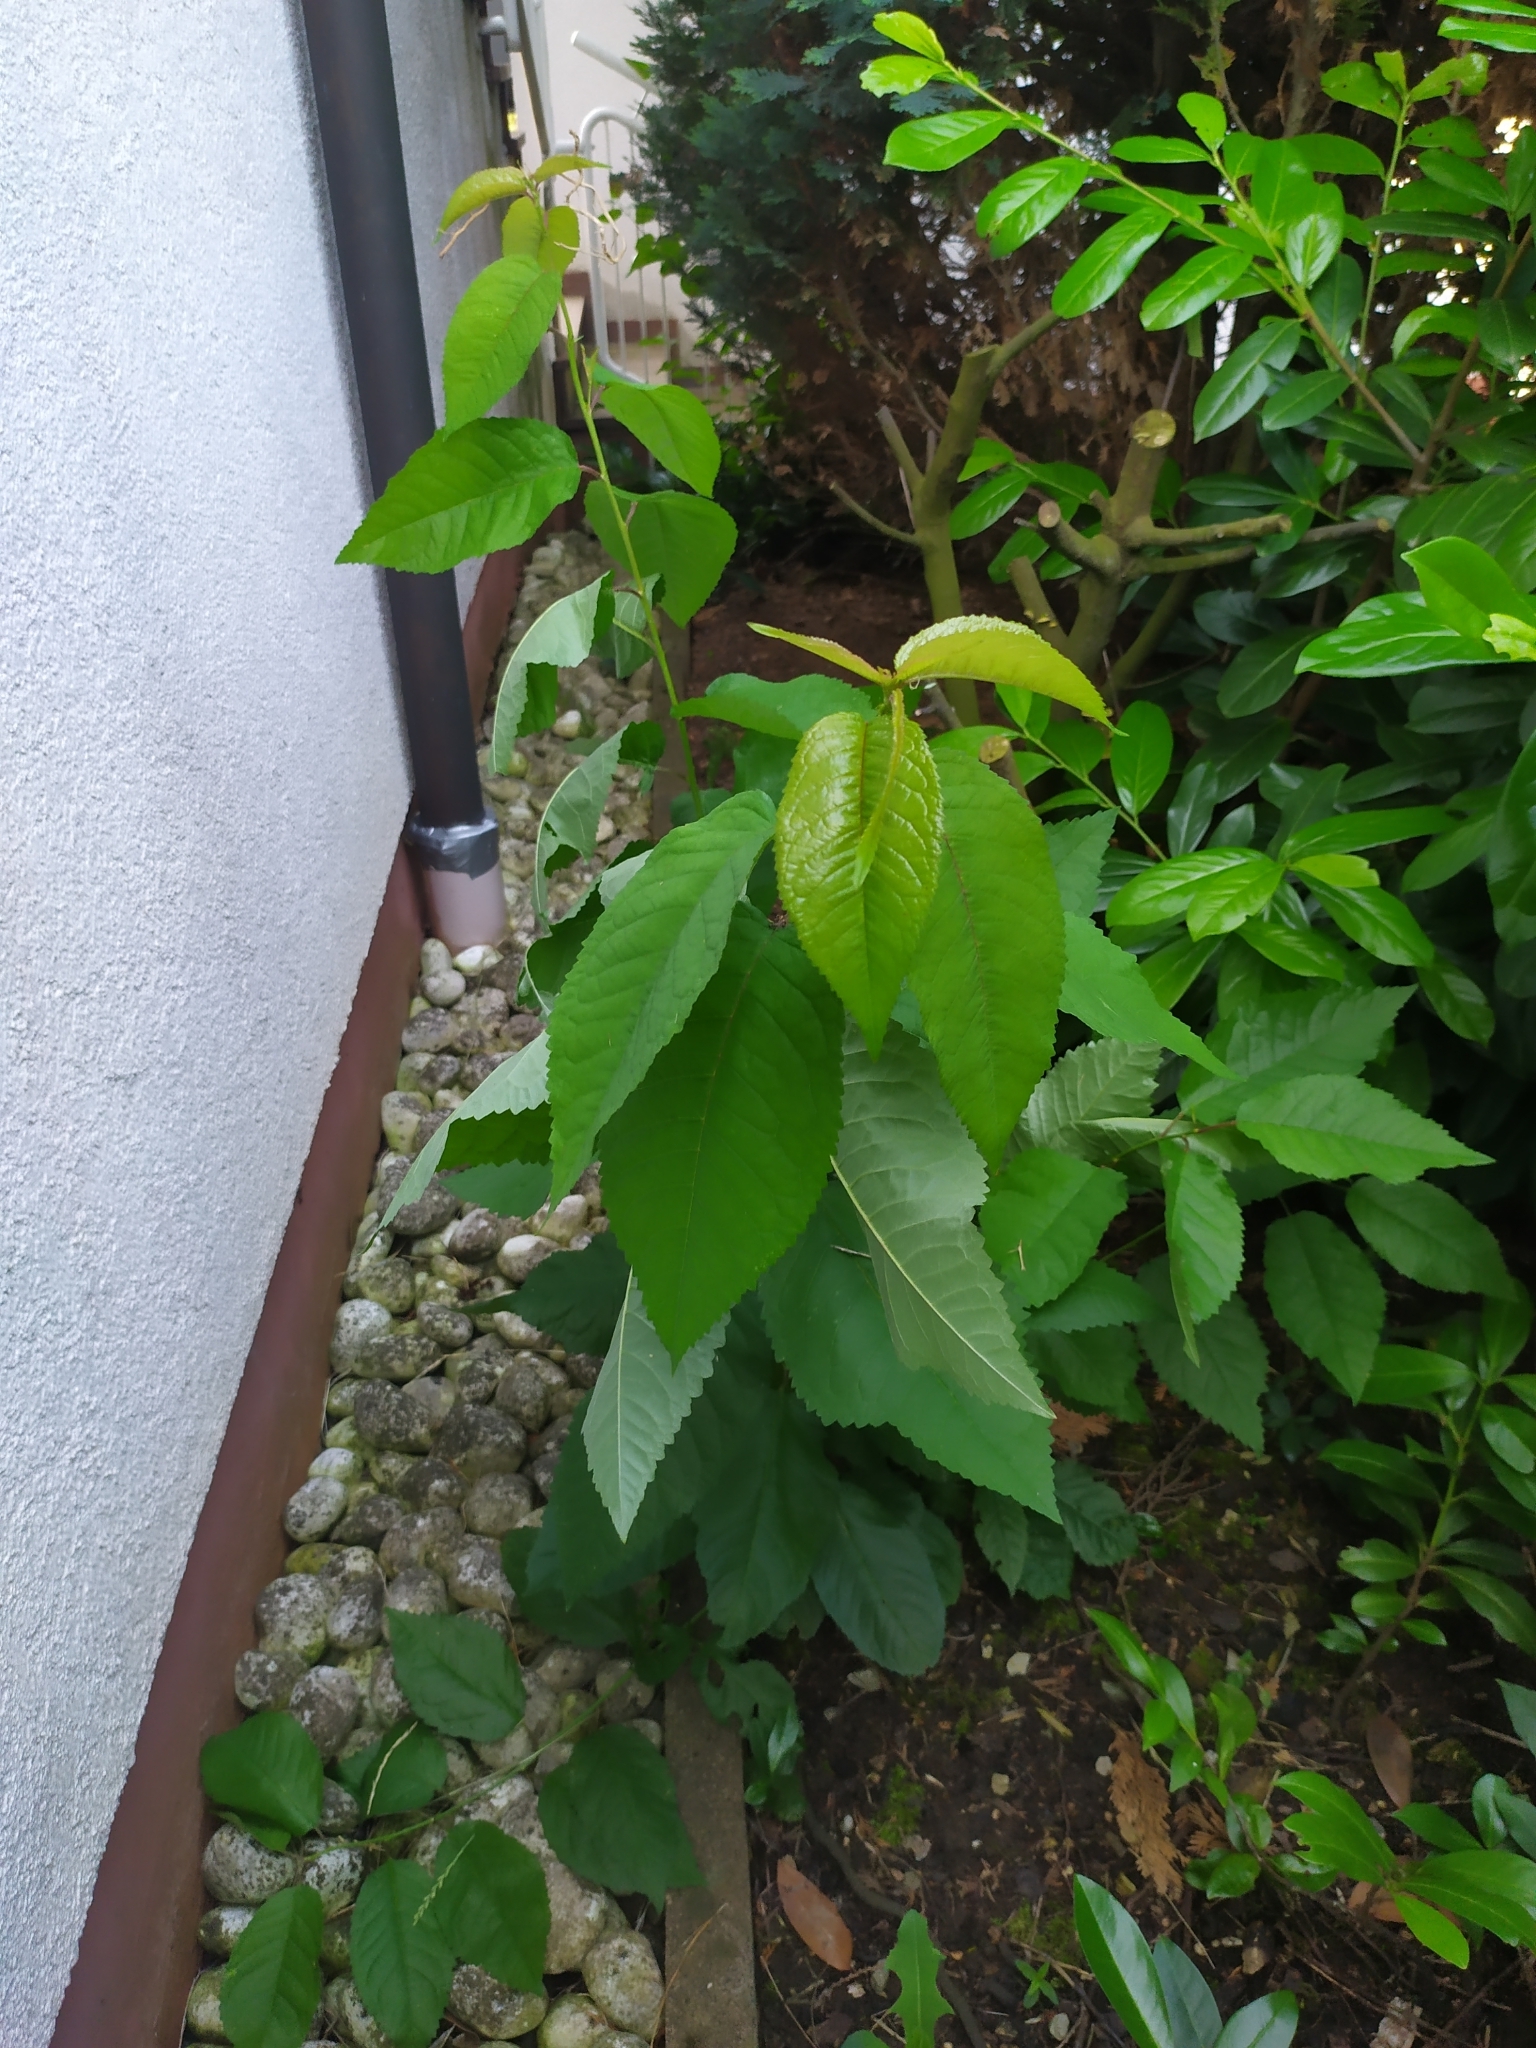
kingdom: Plantae
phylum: Tracheophyta
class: Magnoliopsida
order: Rosales
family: Rosaceae
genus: Prunus
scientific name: Prunus avium
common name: Sweet cherry
